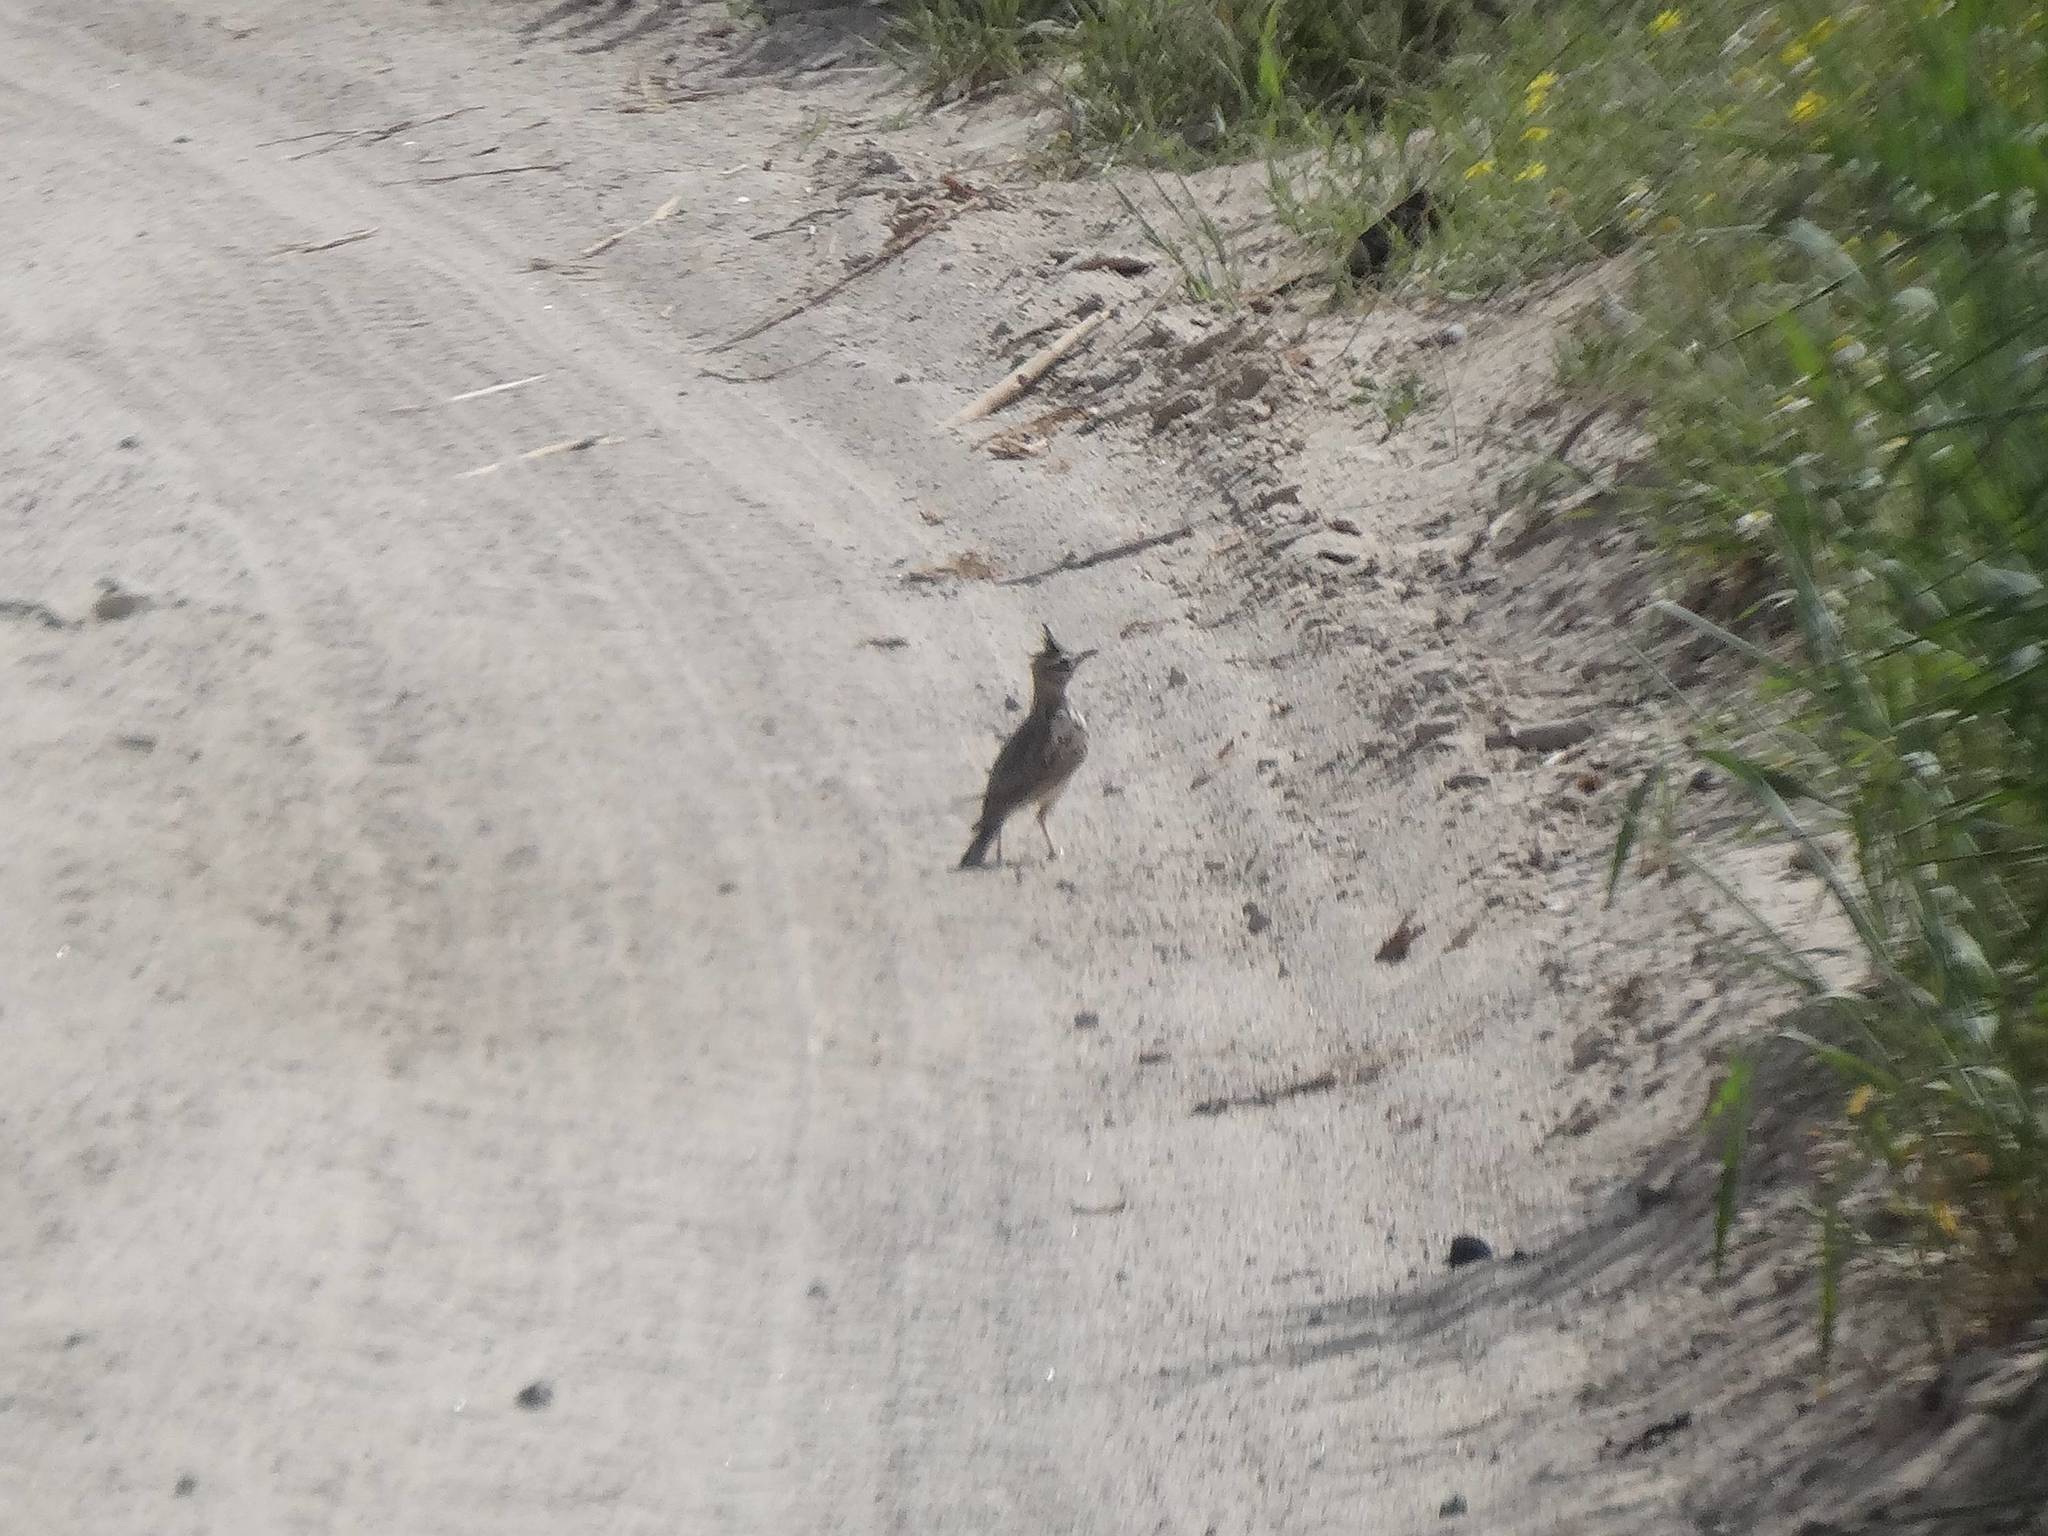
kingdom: Animalia
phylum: Chordata
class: Aves
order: Passeriformes
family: Alaudidae
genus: Galerida
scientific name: Galerida cristata
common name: Crested lark
